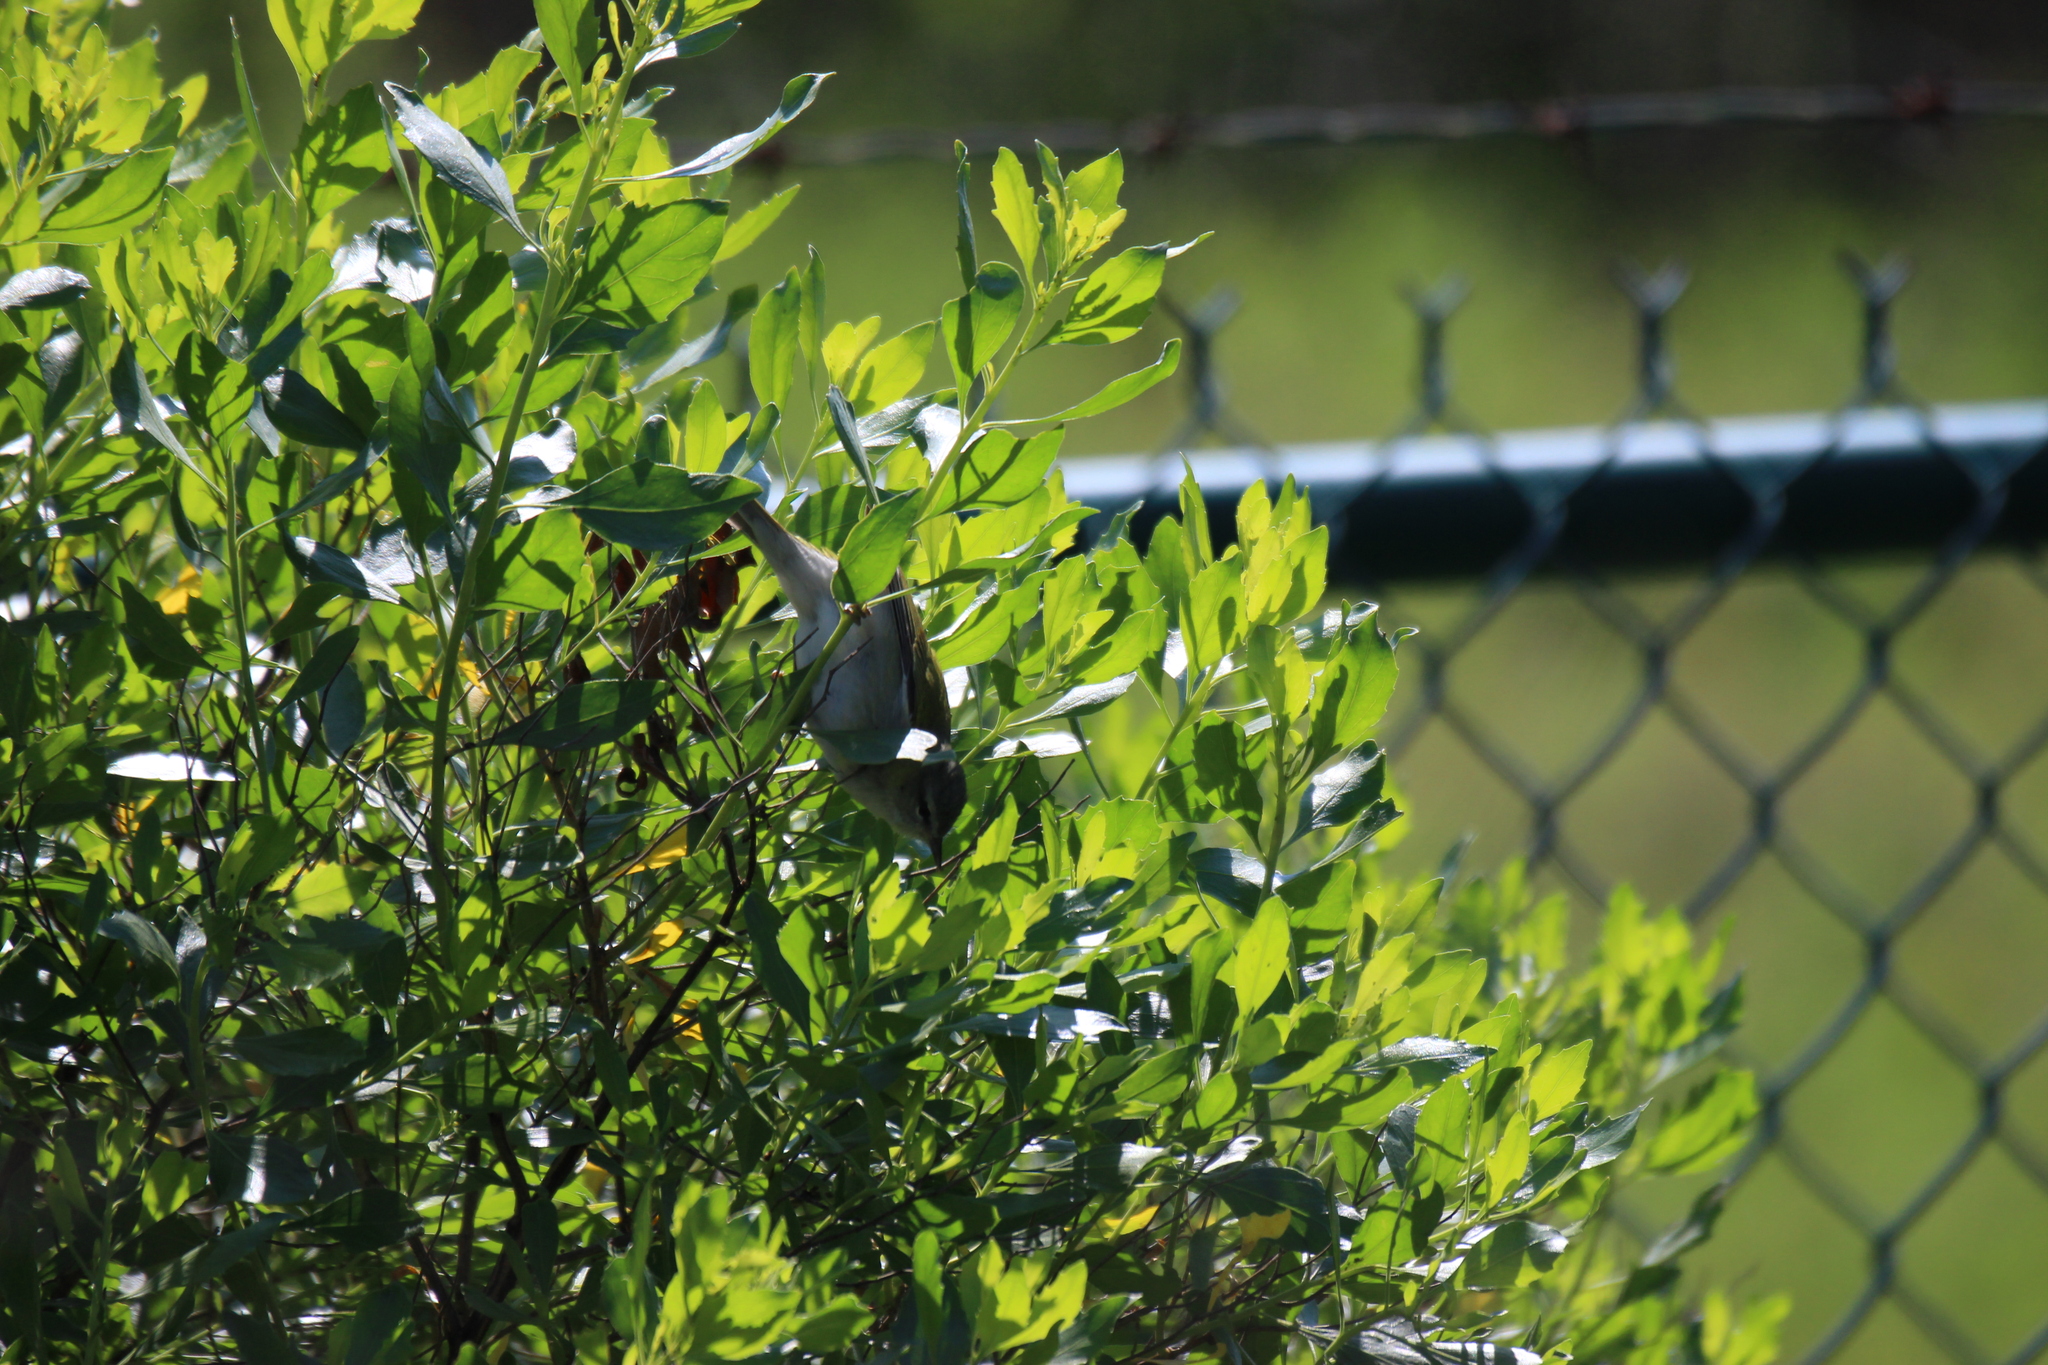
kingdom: Animalia
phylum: Chordata
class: Aves
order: Passeriformes
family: Parulidae
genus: Leiothlypis
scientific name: Leiothlypis peregrina
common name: Tennessee warbler
